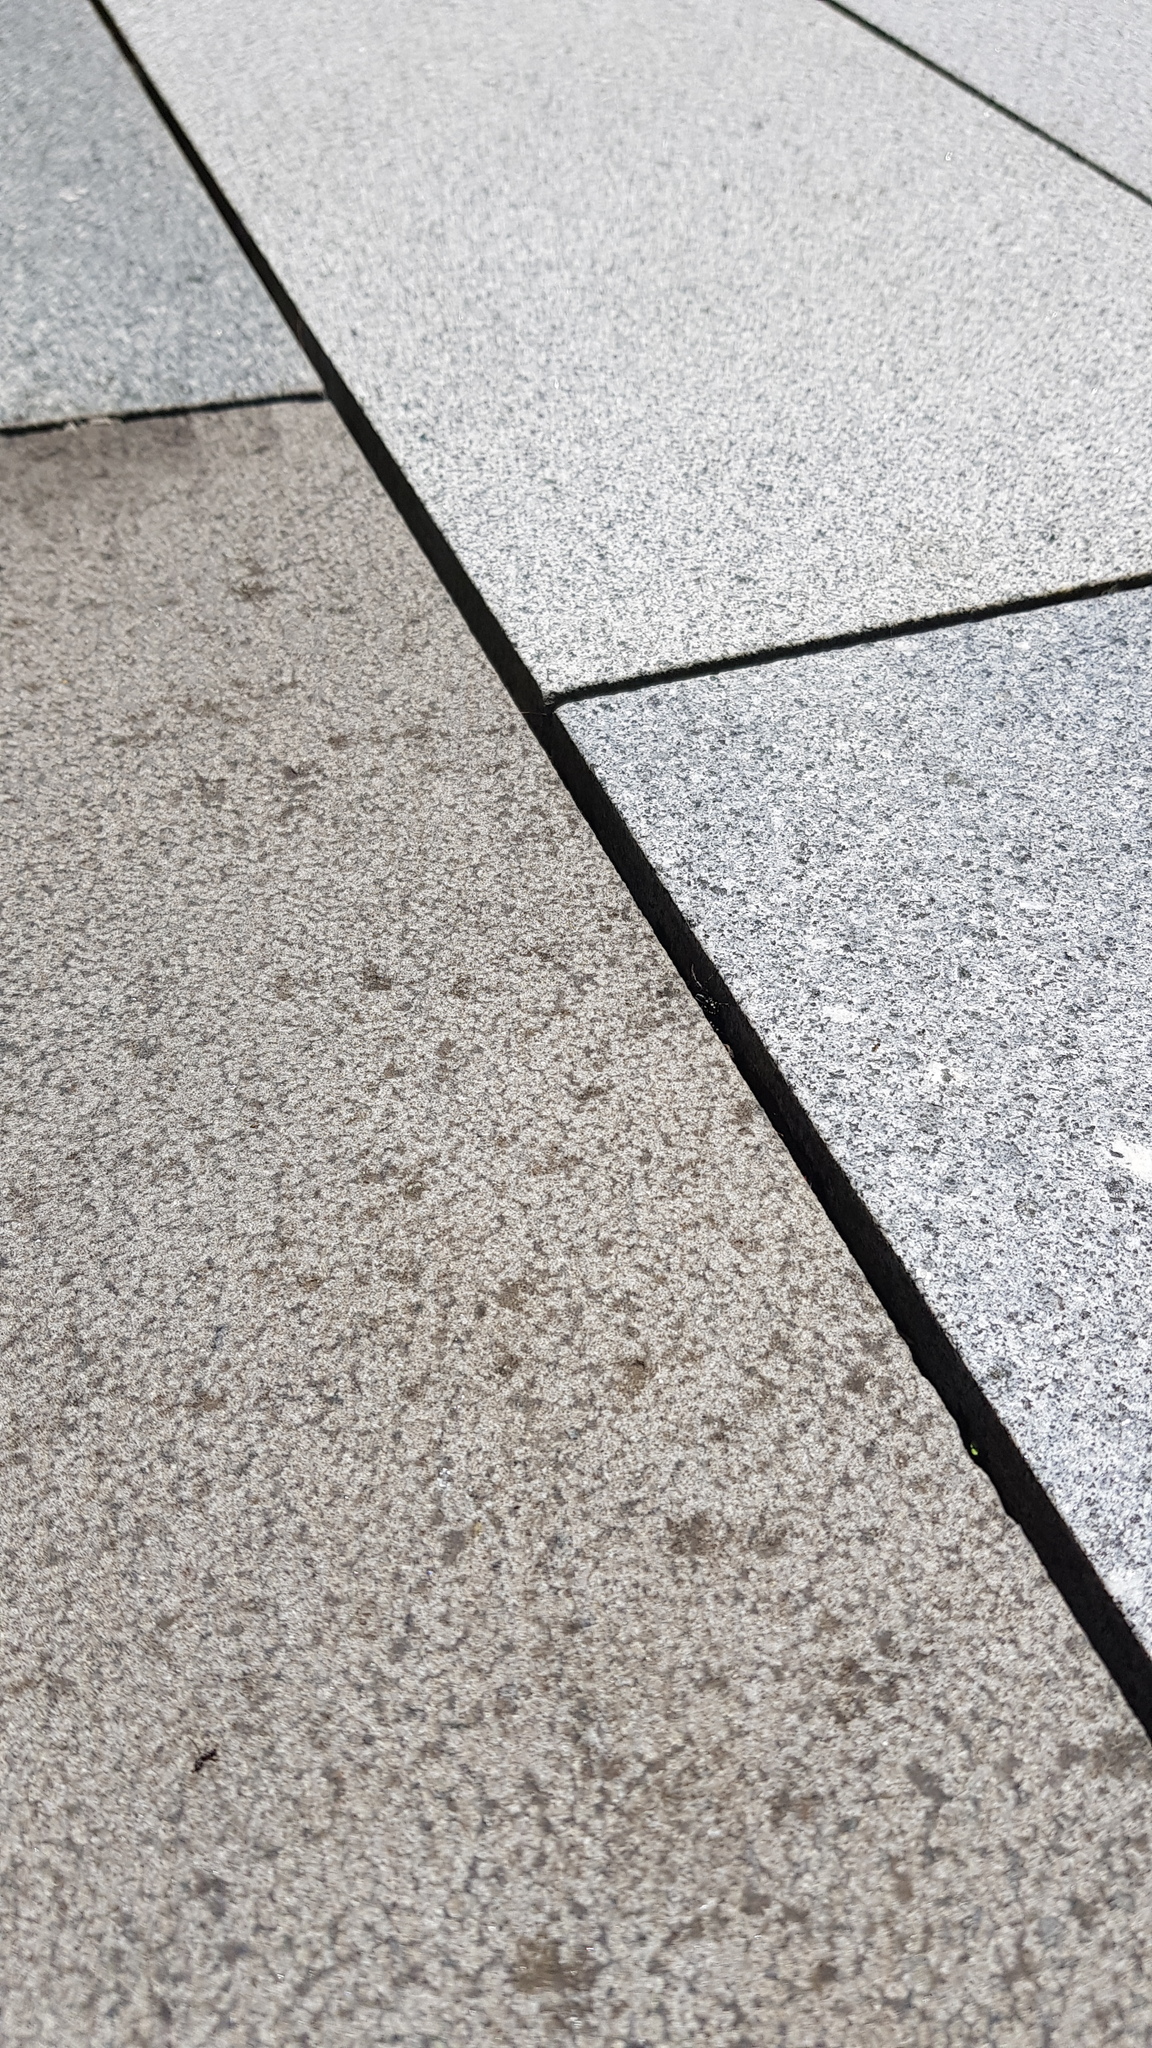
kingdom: Animalia
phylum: Arthropoda
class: Arachnida
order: Araneae
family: Corinnidae
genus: Nyssus
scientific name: Nyssus coloripes
